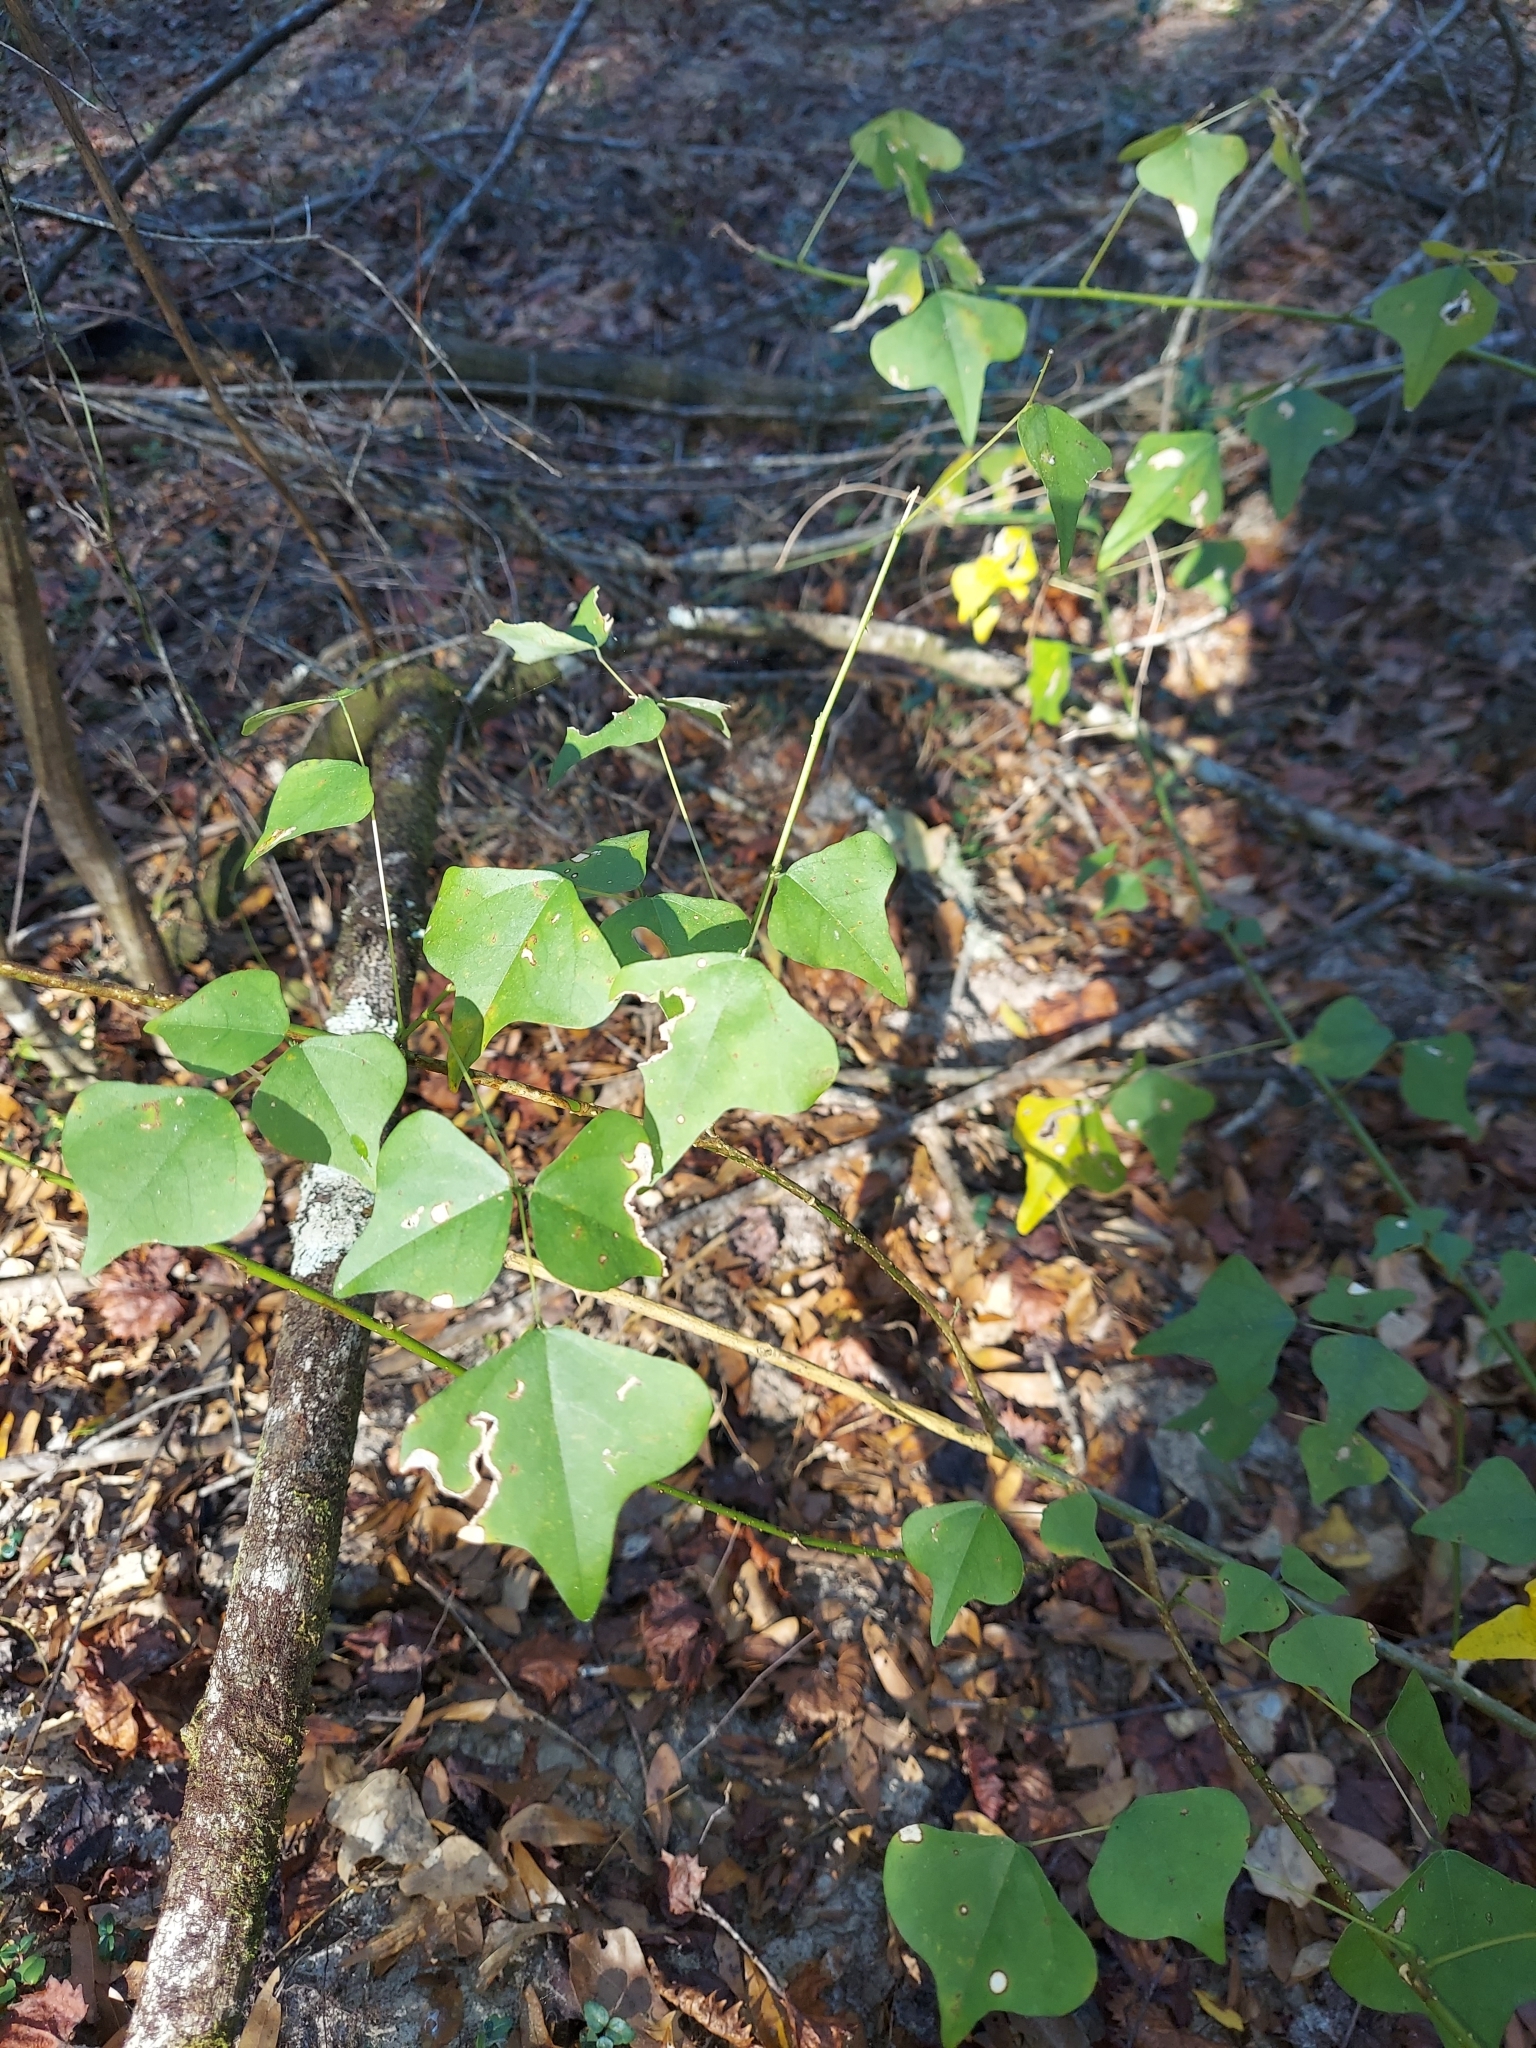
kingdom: Plantae
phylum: Tracheophyta
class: Magnoliopsida
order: Fabales
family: Fabaceae
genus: Erythrina
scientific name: Erythrina herbacea
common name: Coral-bean
